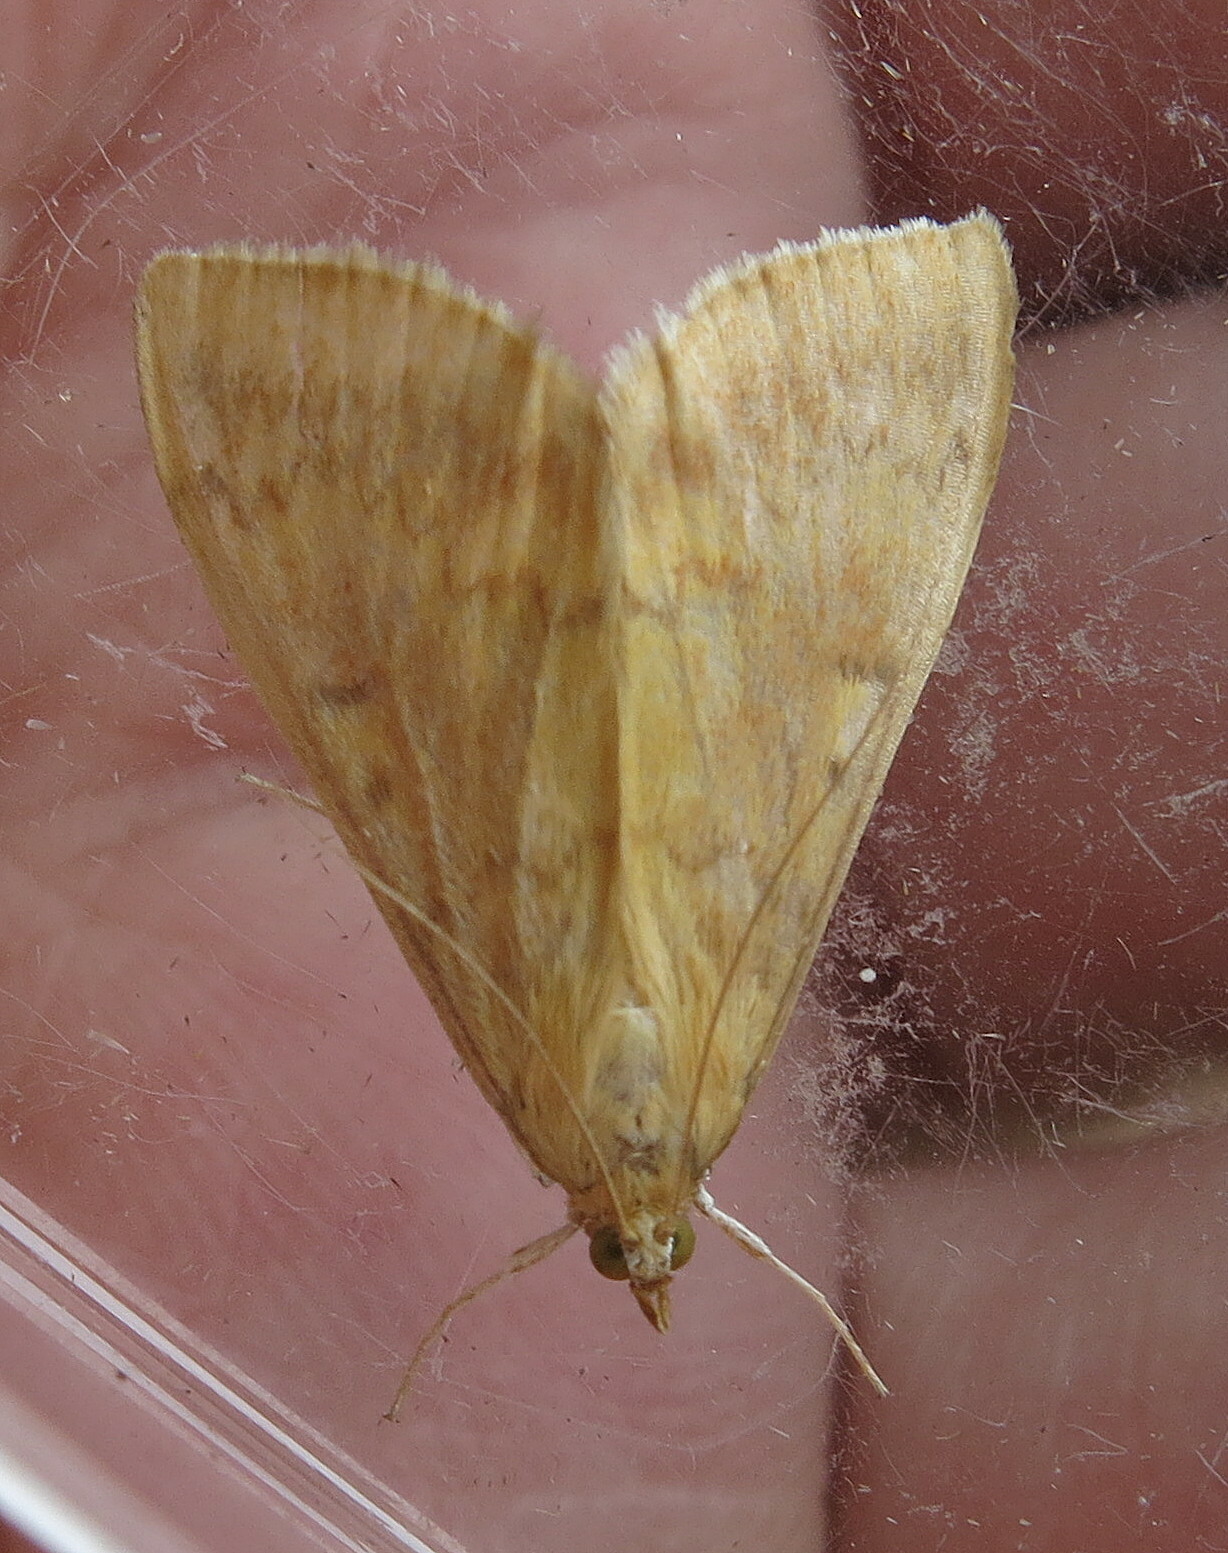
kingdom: Animalia
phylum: Arthropoda
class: Insecta
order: Lepidoptera
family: Crambidae
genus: Ostrinia
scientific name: Ostrinia nubilalis
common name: European corn borer
